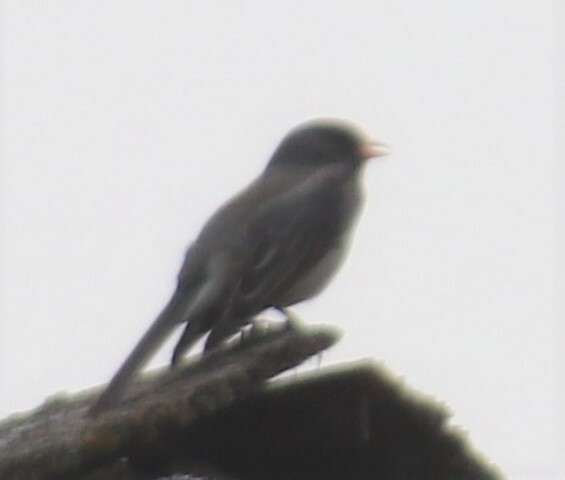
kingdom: Animalia
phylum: Chordata
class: Aves
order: Passeriformes
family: Passerellidae
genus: Junco
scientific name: Junco hyemalis
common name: Dark-eyed junco
